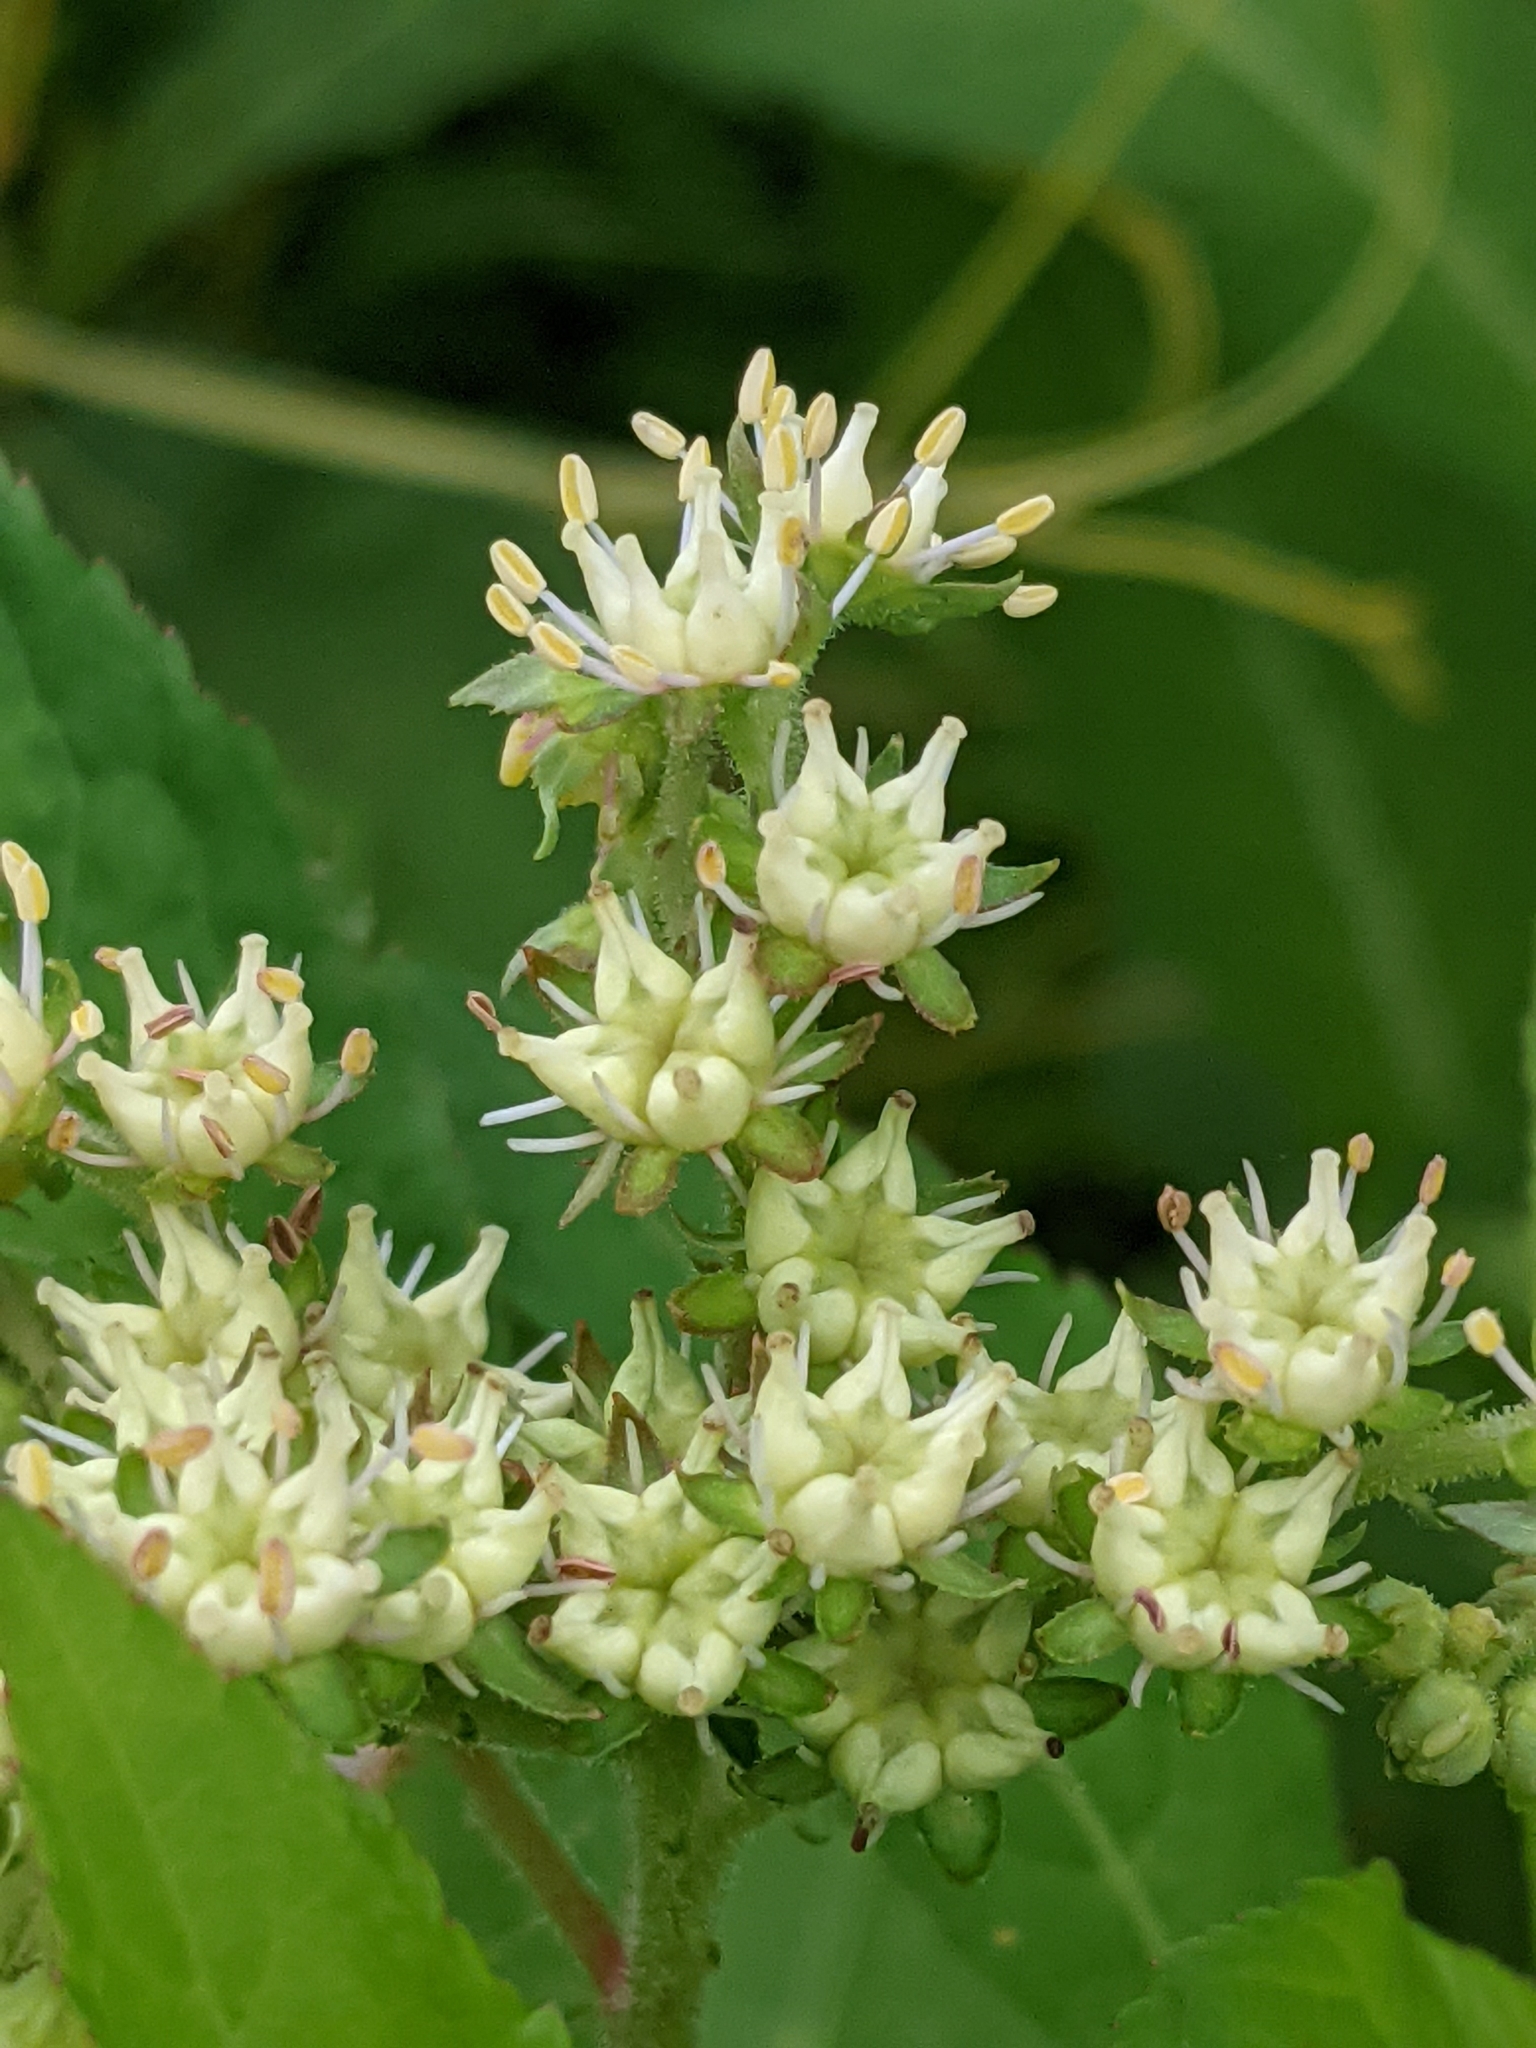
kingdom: Plantae
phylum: Tracheophyta
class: Magnoliopsida
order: Saxifragales
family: Penthoraceae
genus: Penthorum
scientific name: Penthorum sedoides
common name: Ditch stonecrop
